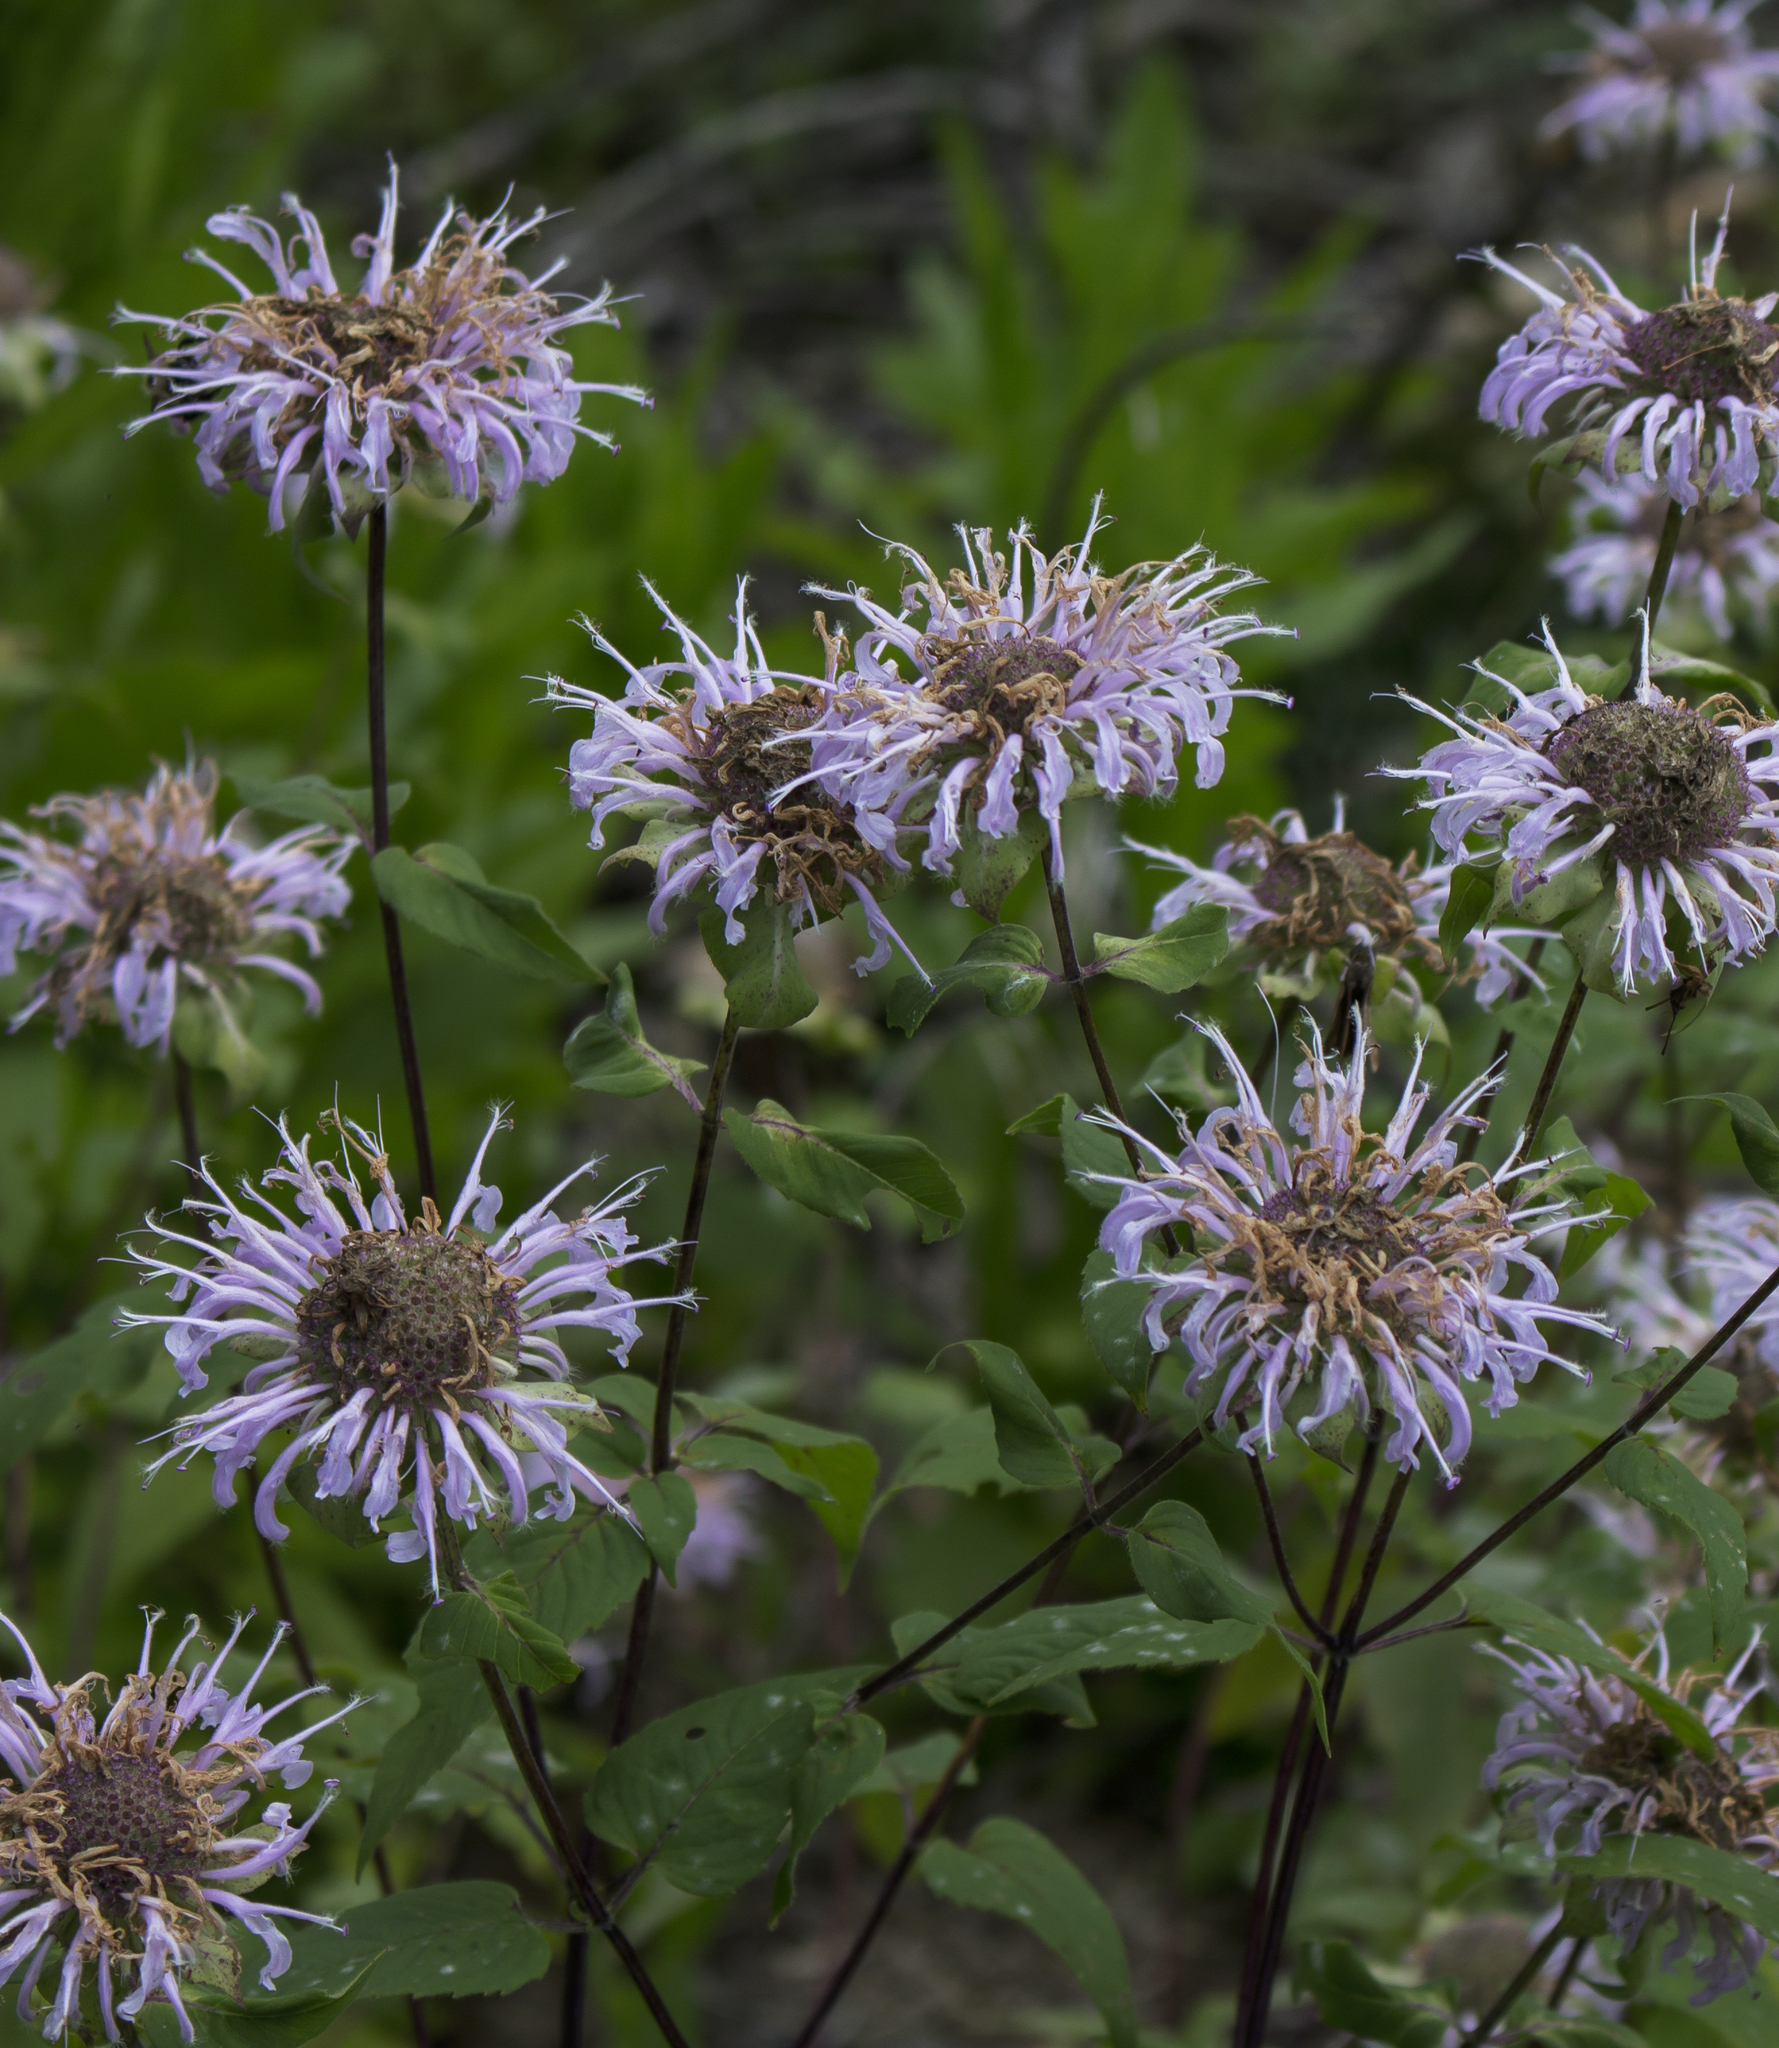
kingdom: Plantae
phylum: Tracheophyta
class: Magnoliopsida
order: Lamiales
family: Lamiaceae
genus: Monarda
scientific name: Monarda fistulosa
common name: Purple beebalm
